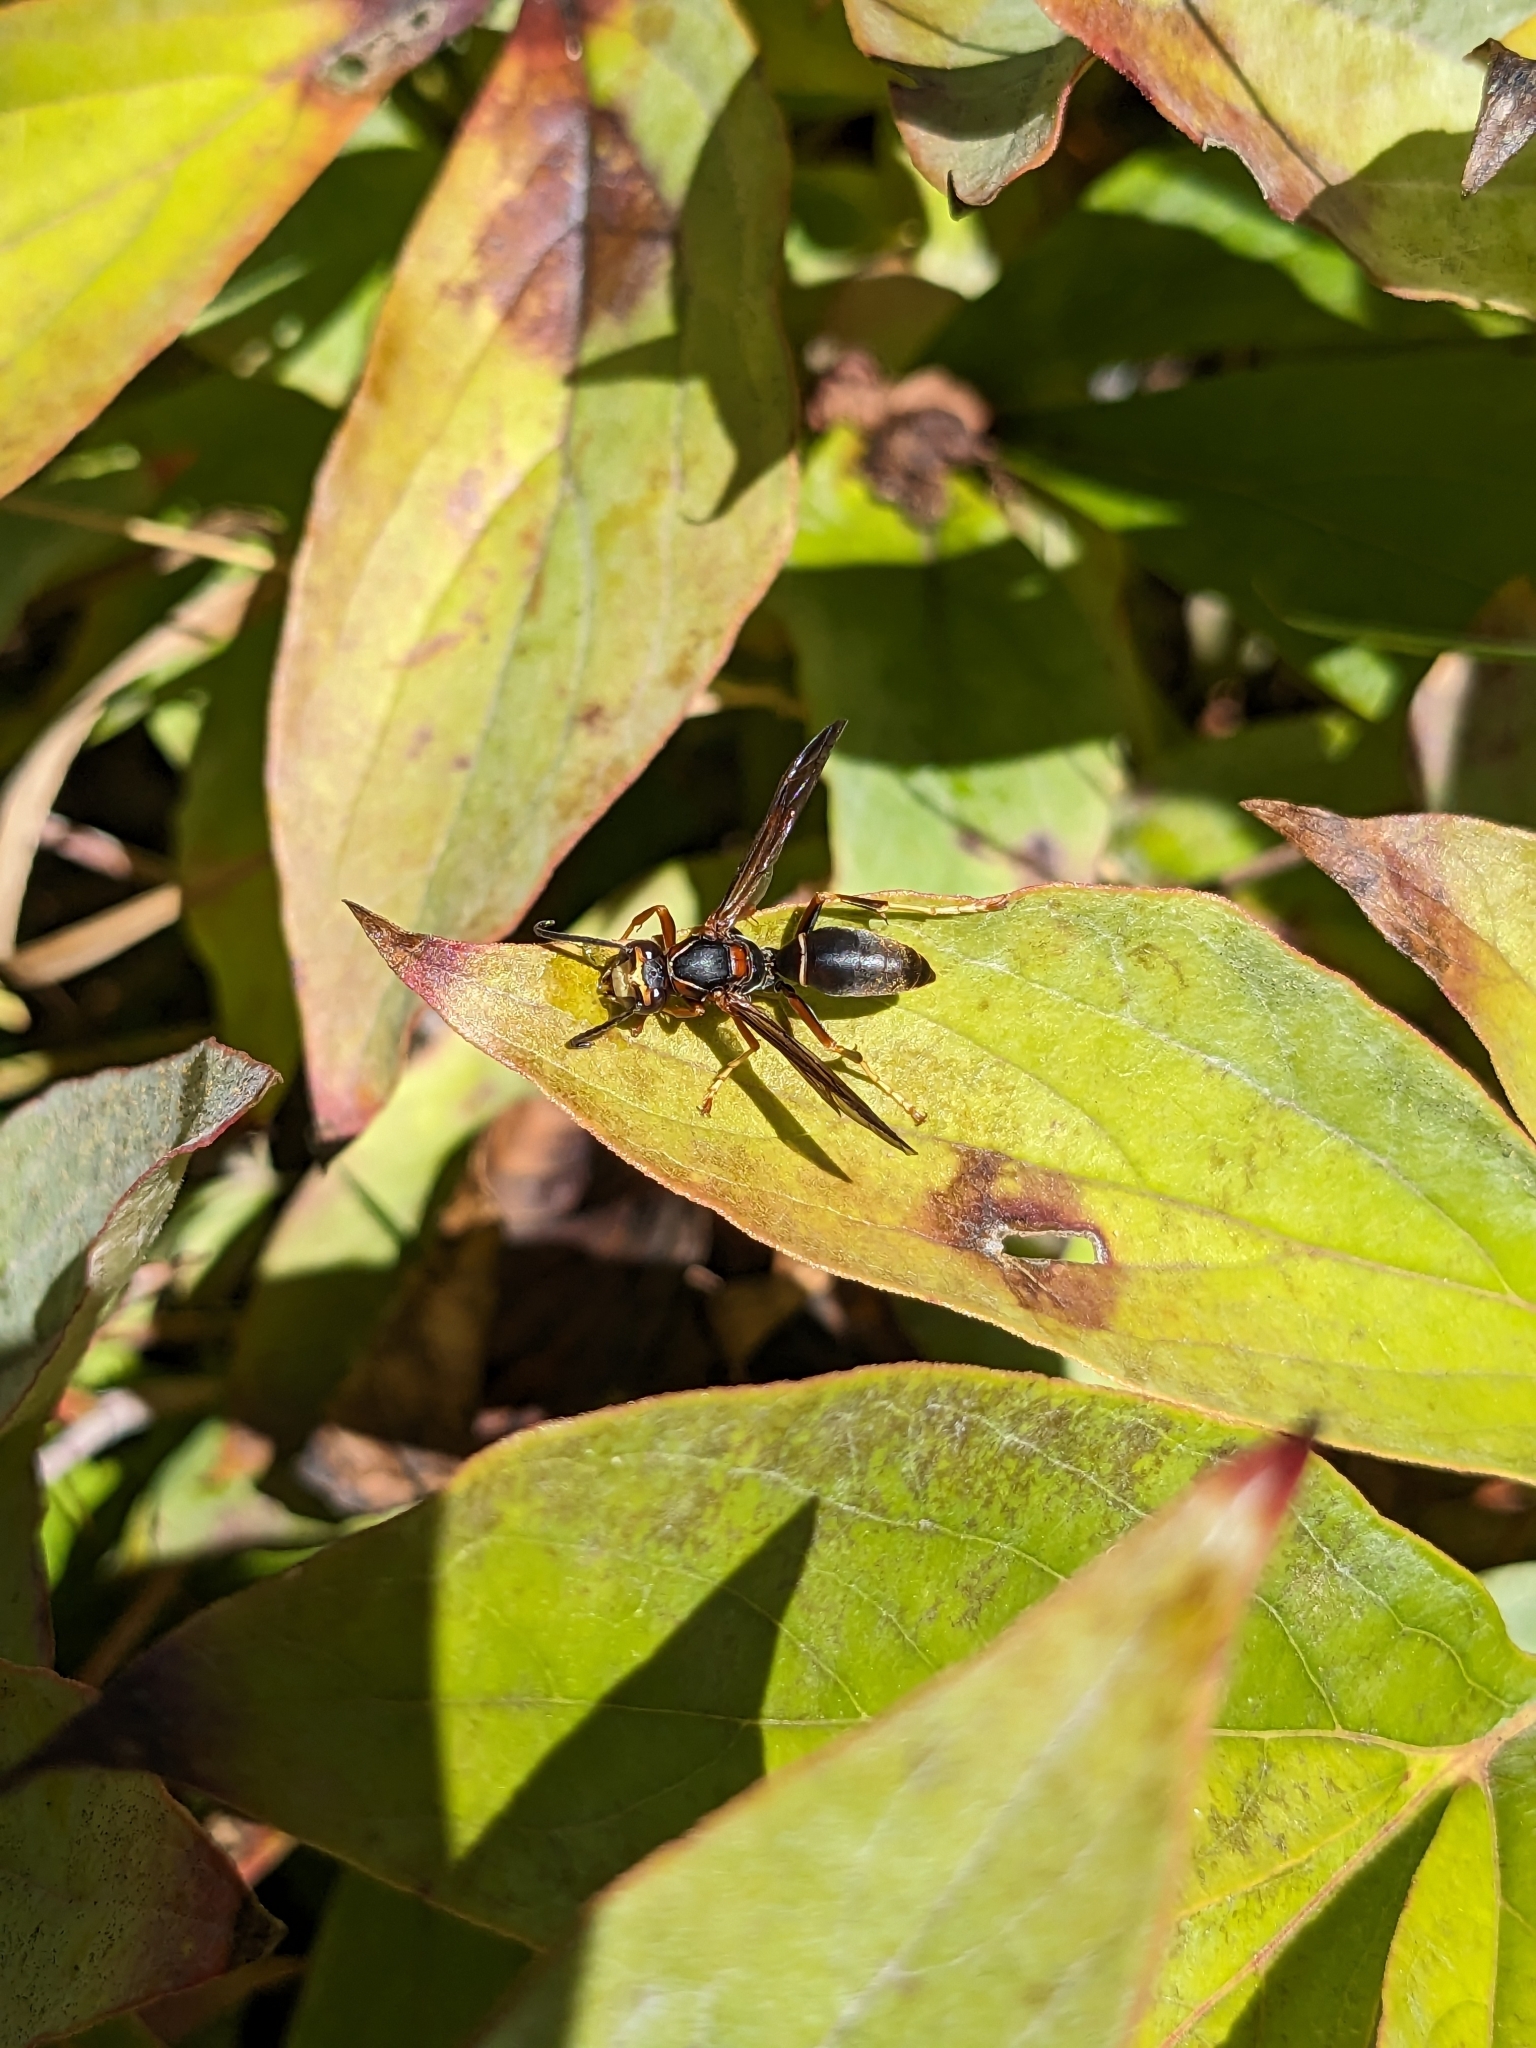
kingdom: Animalia
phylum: Arthropoda
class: Insecta
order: Hymenoptera
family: Eumenidae
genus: Polistes
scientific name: Polistes fuscatus
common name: Dark paper wasp
